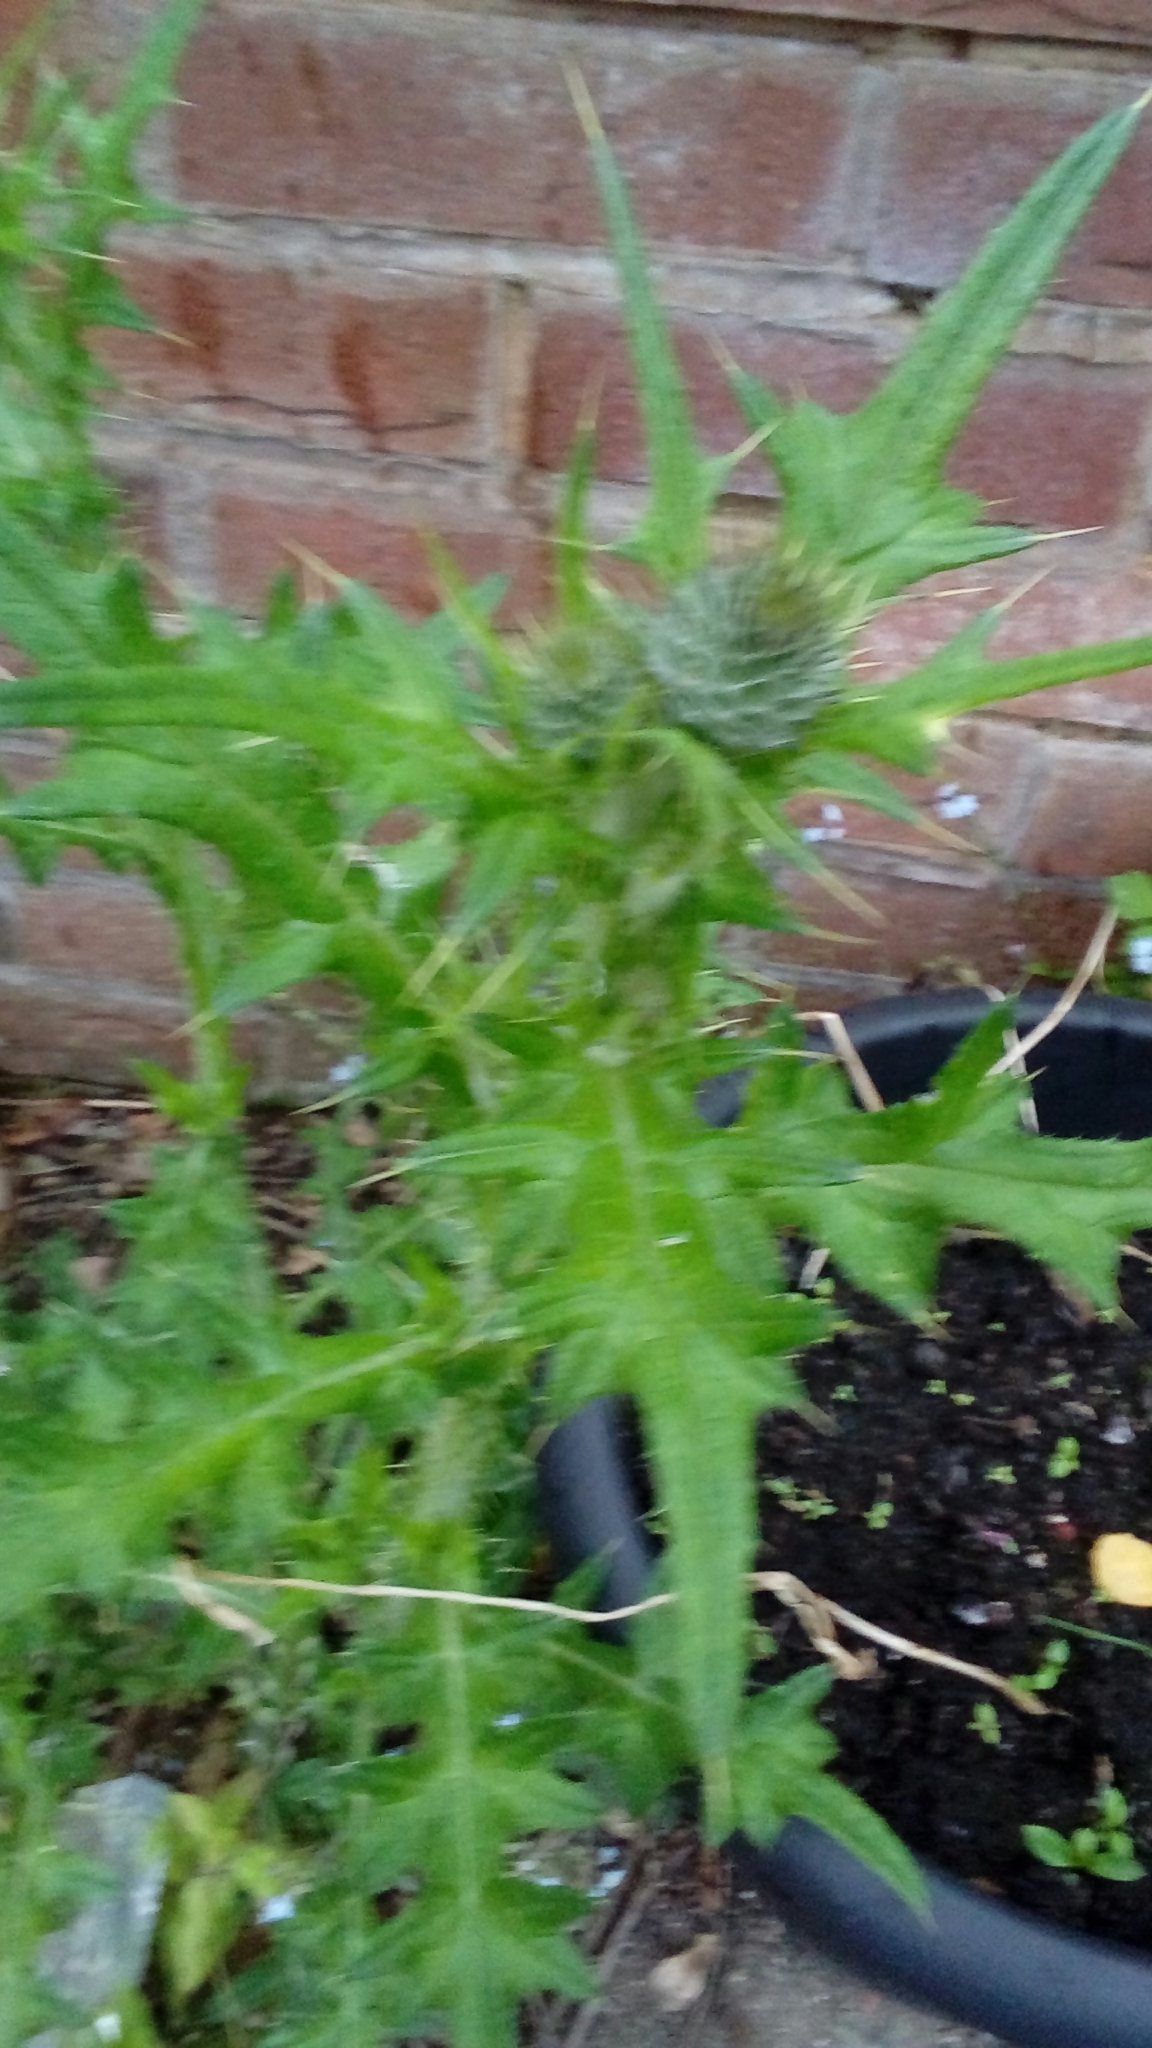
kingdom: Plantae
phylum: Tracheophyta
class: Magnoliopsida
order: Asterales
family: Asteraceae
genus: Cirsium
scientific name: Cirsium vulgare
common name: Bull thistle
